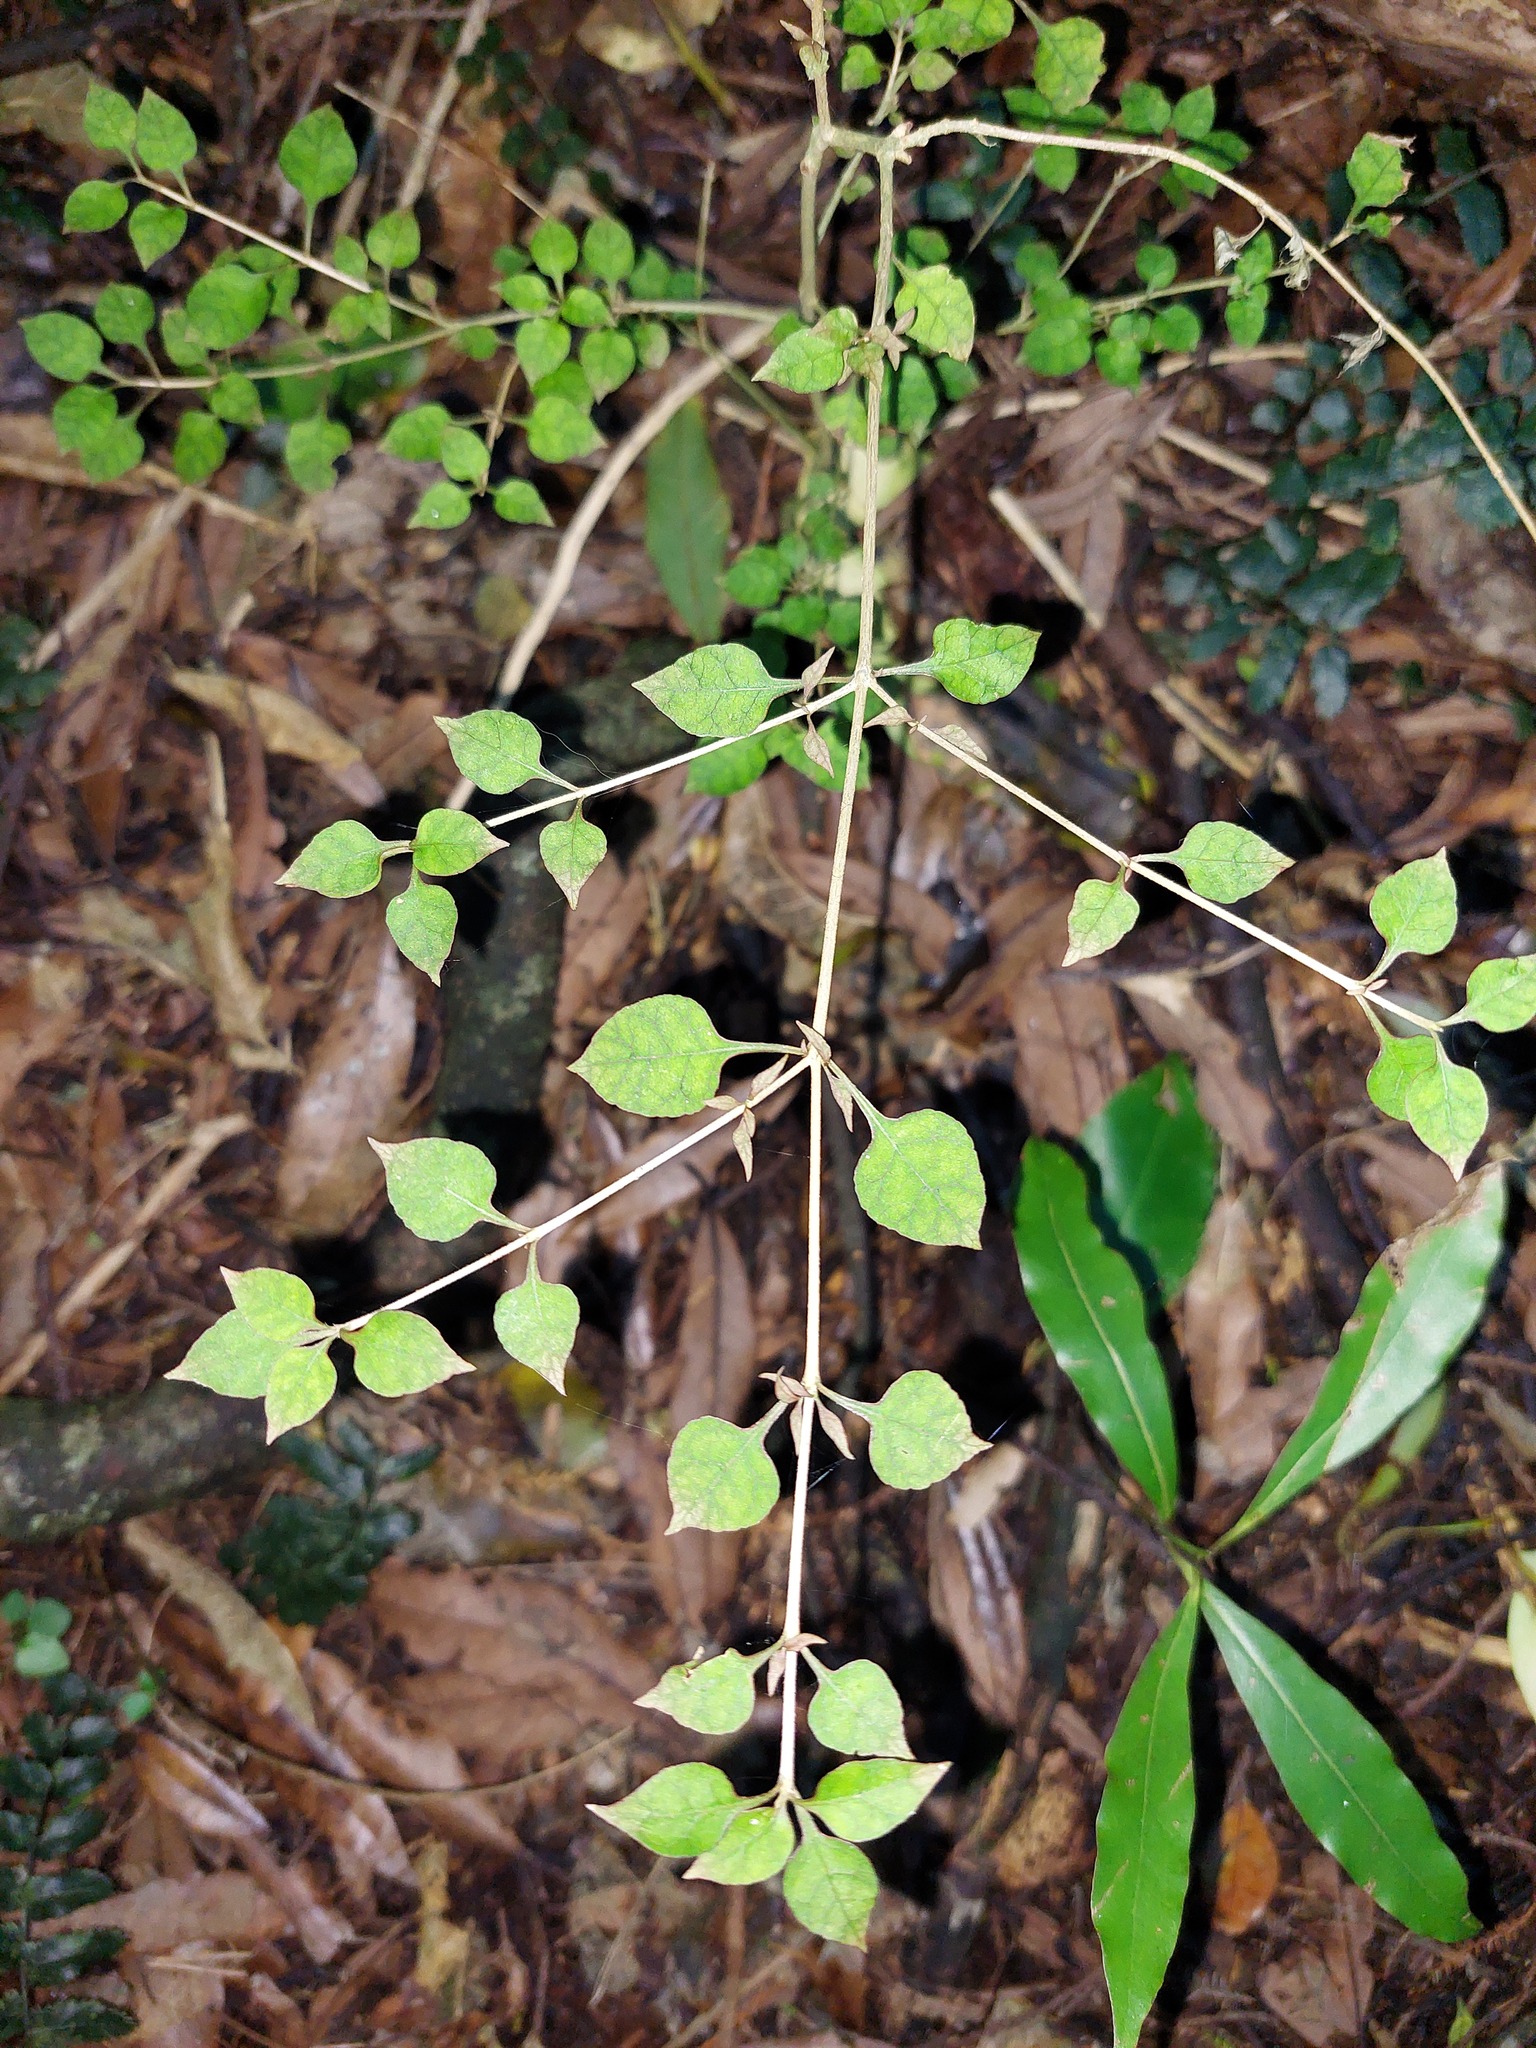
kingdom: Plantae
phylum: Tracheophyta
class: Magnoliopsida
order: Gentianales
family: Rubiaceae
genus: Coprosma
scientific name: Coprosma areolata
